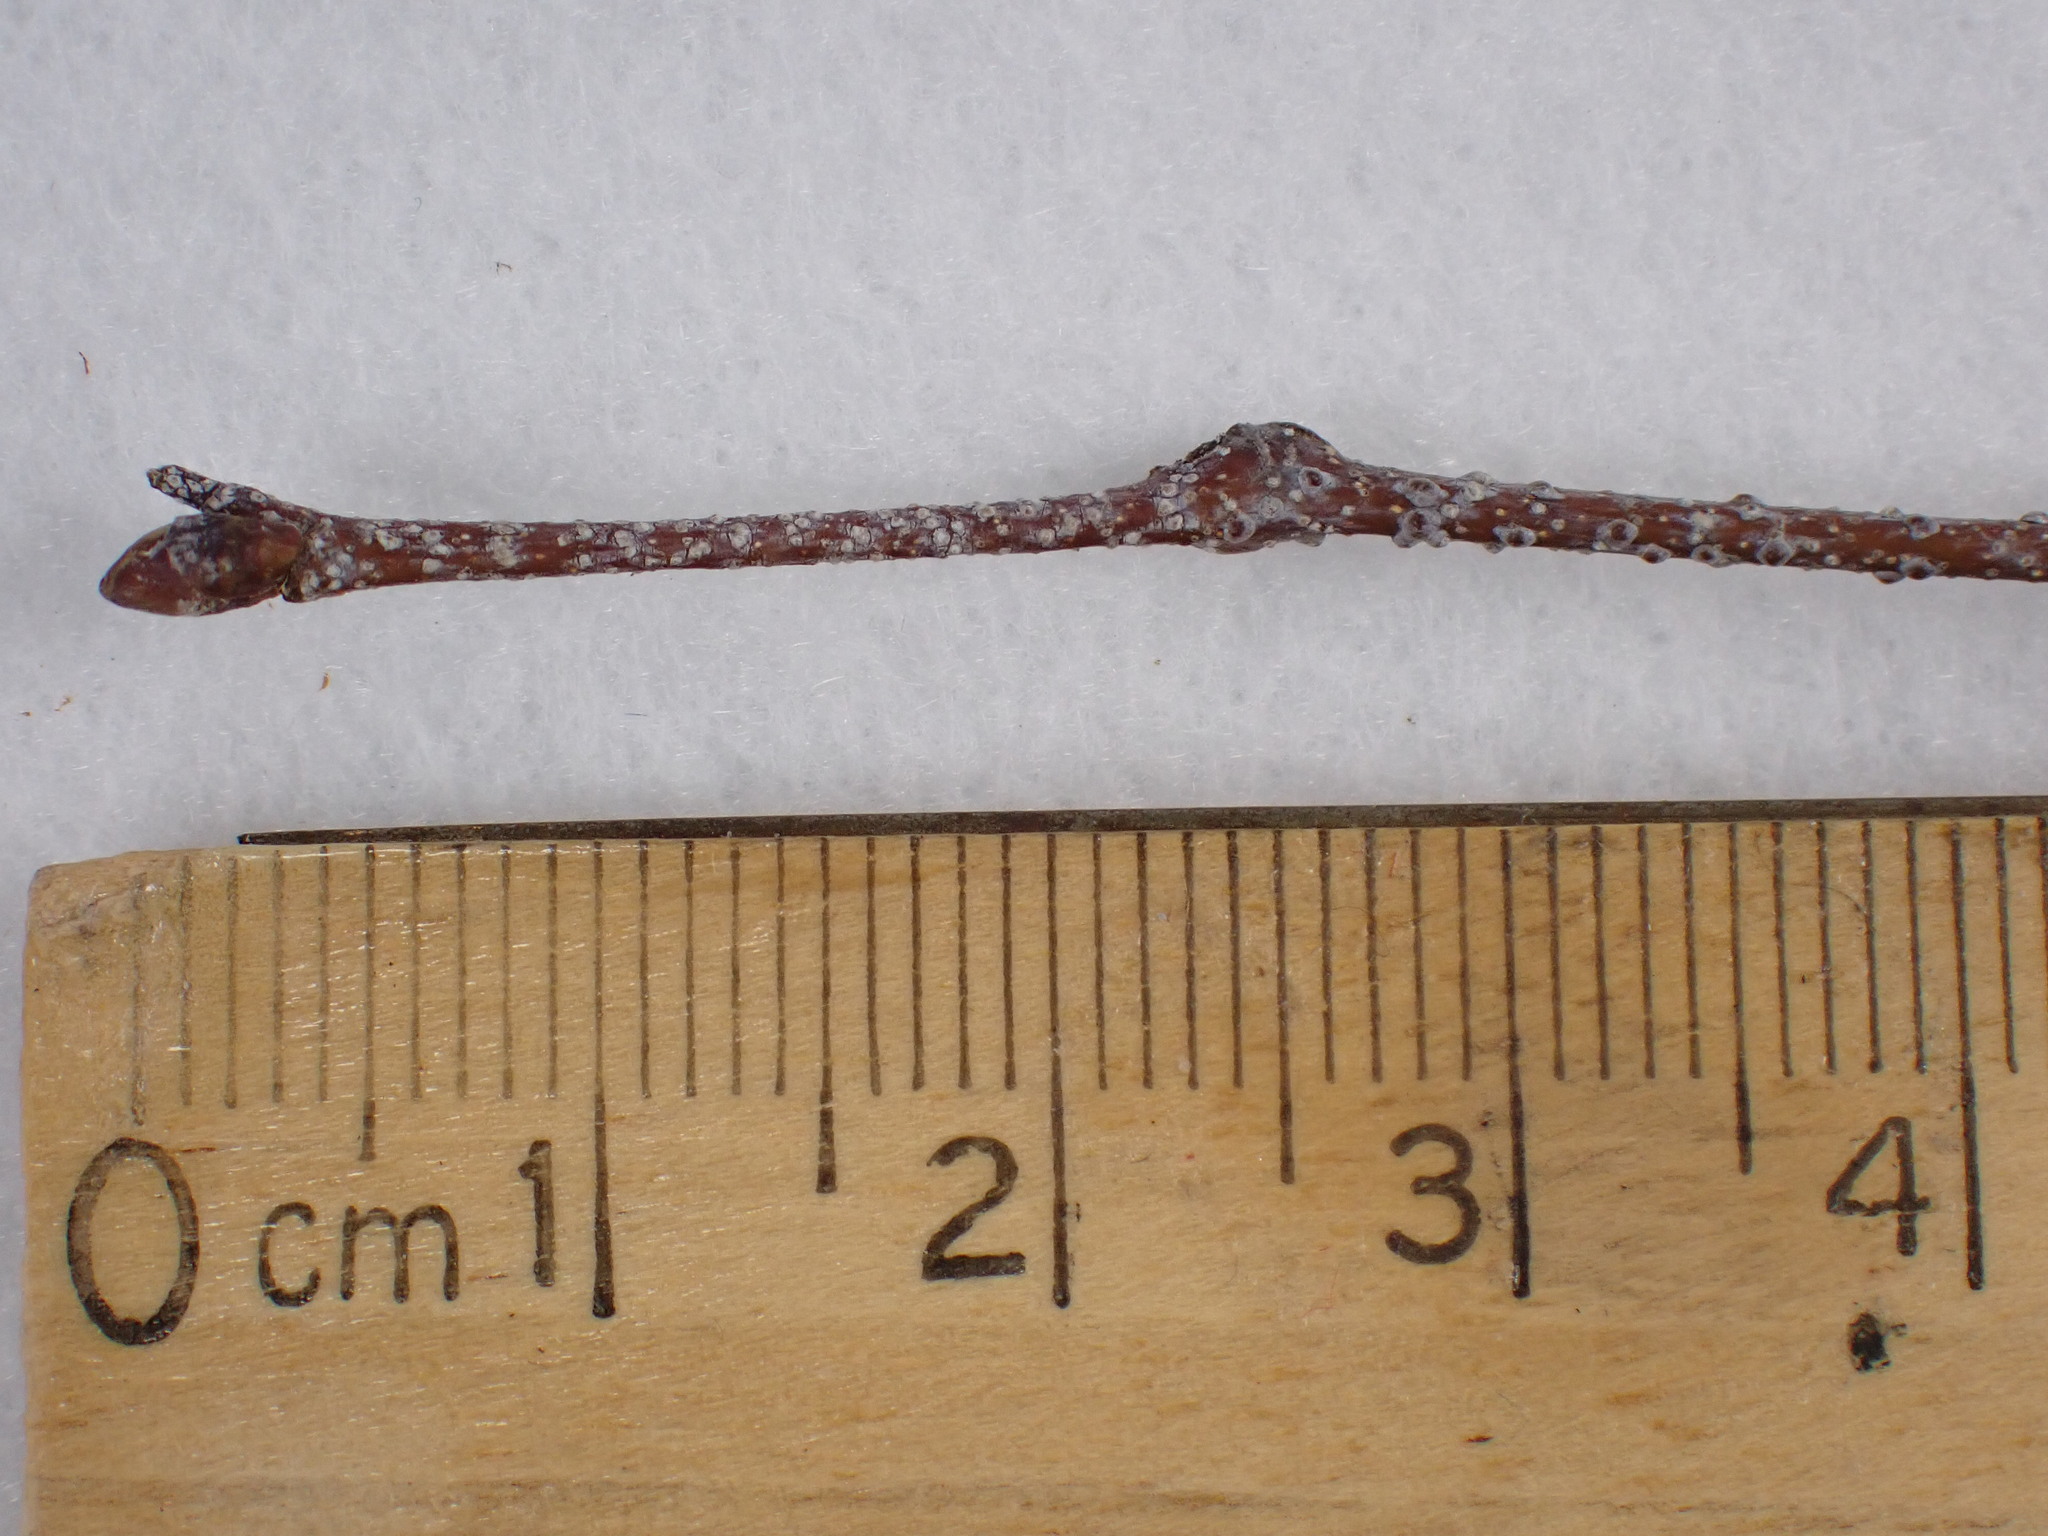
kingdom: Plantae
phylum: Tracheophyta
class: Magnoliopsida
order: Fagales
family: Betulaceae
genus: Betula
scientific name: Betula populifolia
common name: Fire birch
